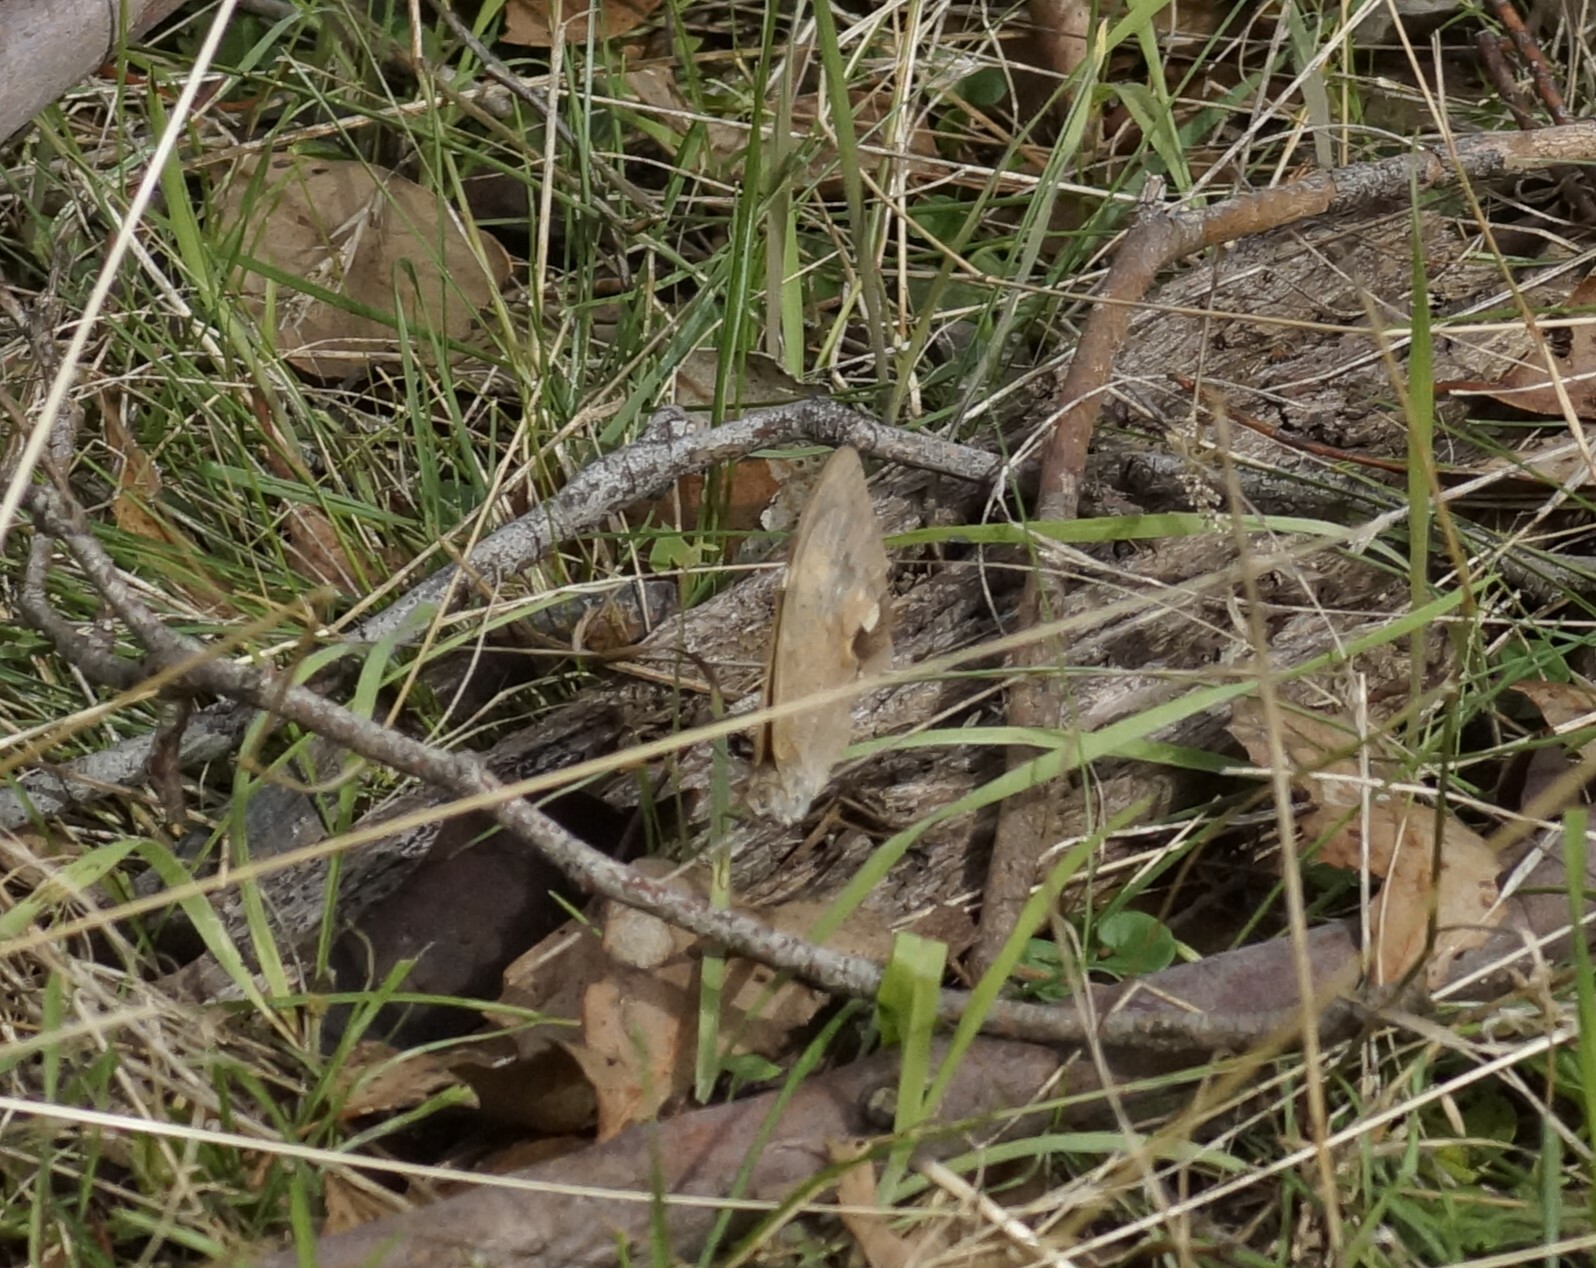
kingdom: Animalia
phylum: Arthropoda
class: Insecta
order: Lepidoptera
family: Nymphalidae
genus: Heteronympha
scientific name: Heteronympha merope
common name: Common brown
